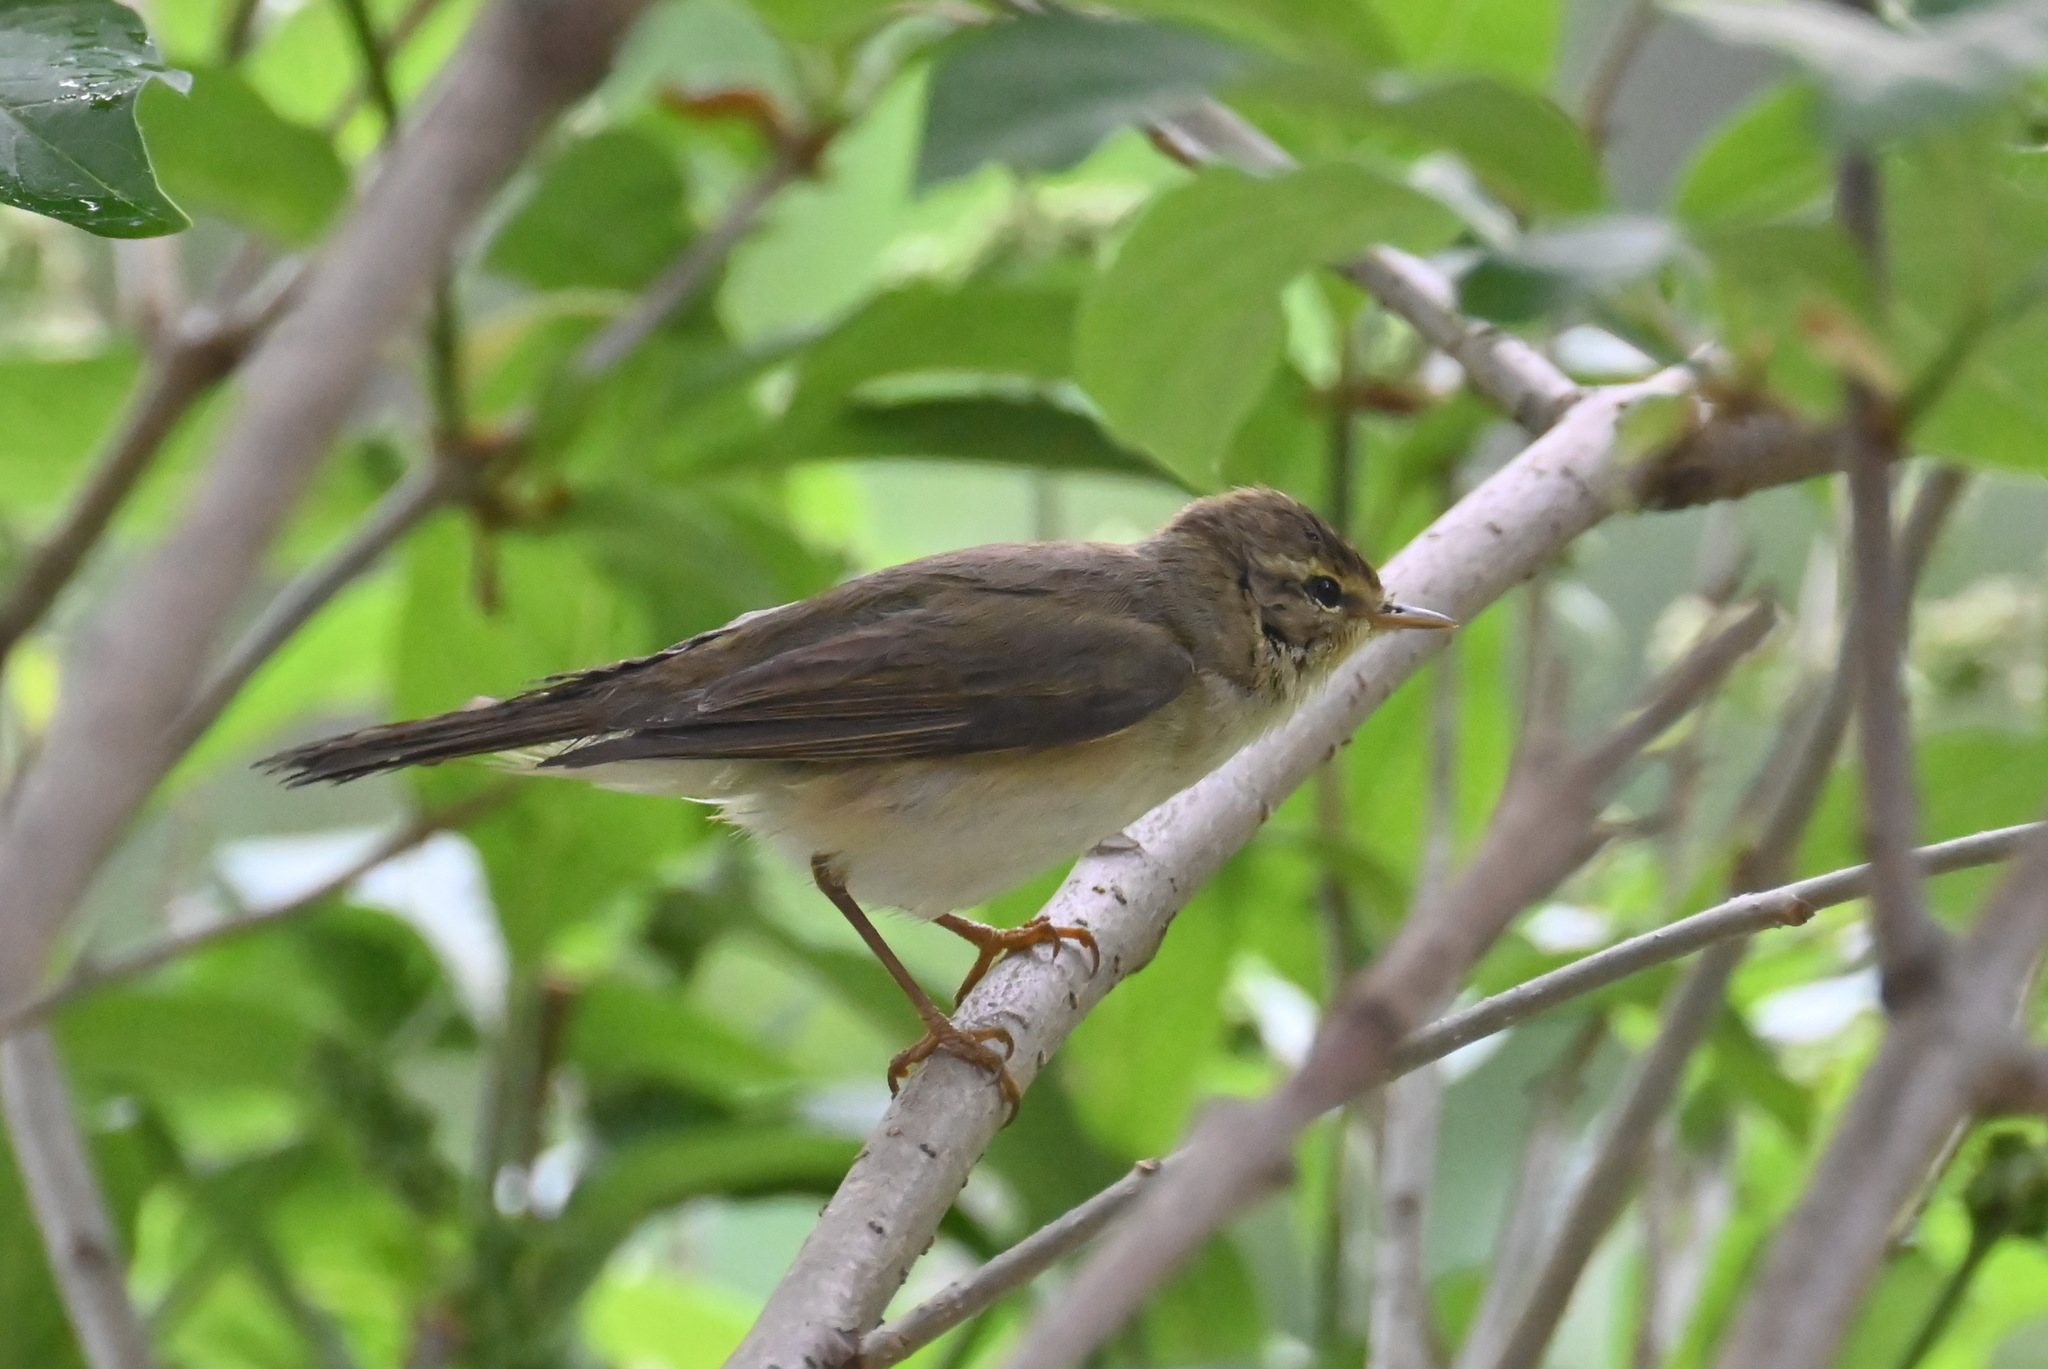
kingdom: Animalia
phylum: Chordata
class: Aves
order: Passeriformes
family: Phylloscopidae
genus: Phylloscopus
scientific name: Phylloscopus trochilus
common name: Willow warbler
